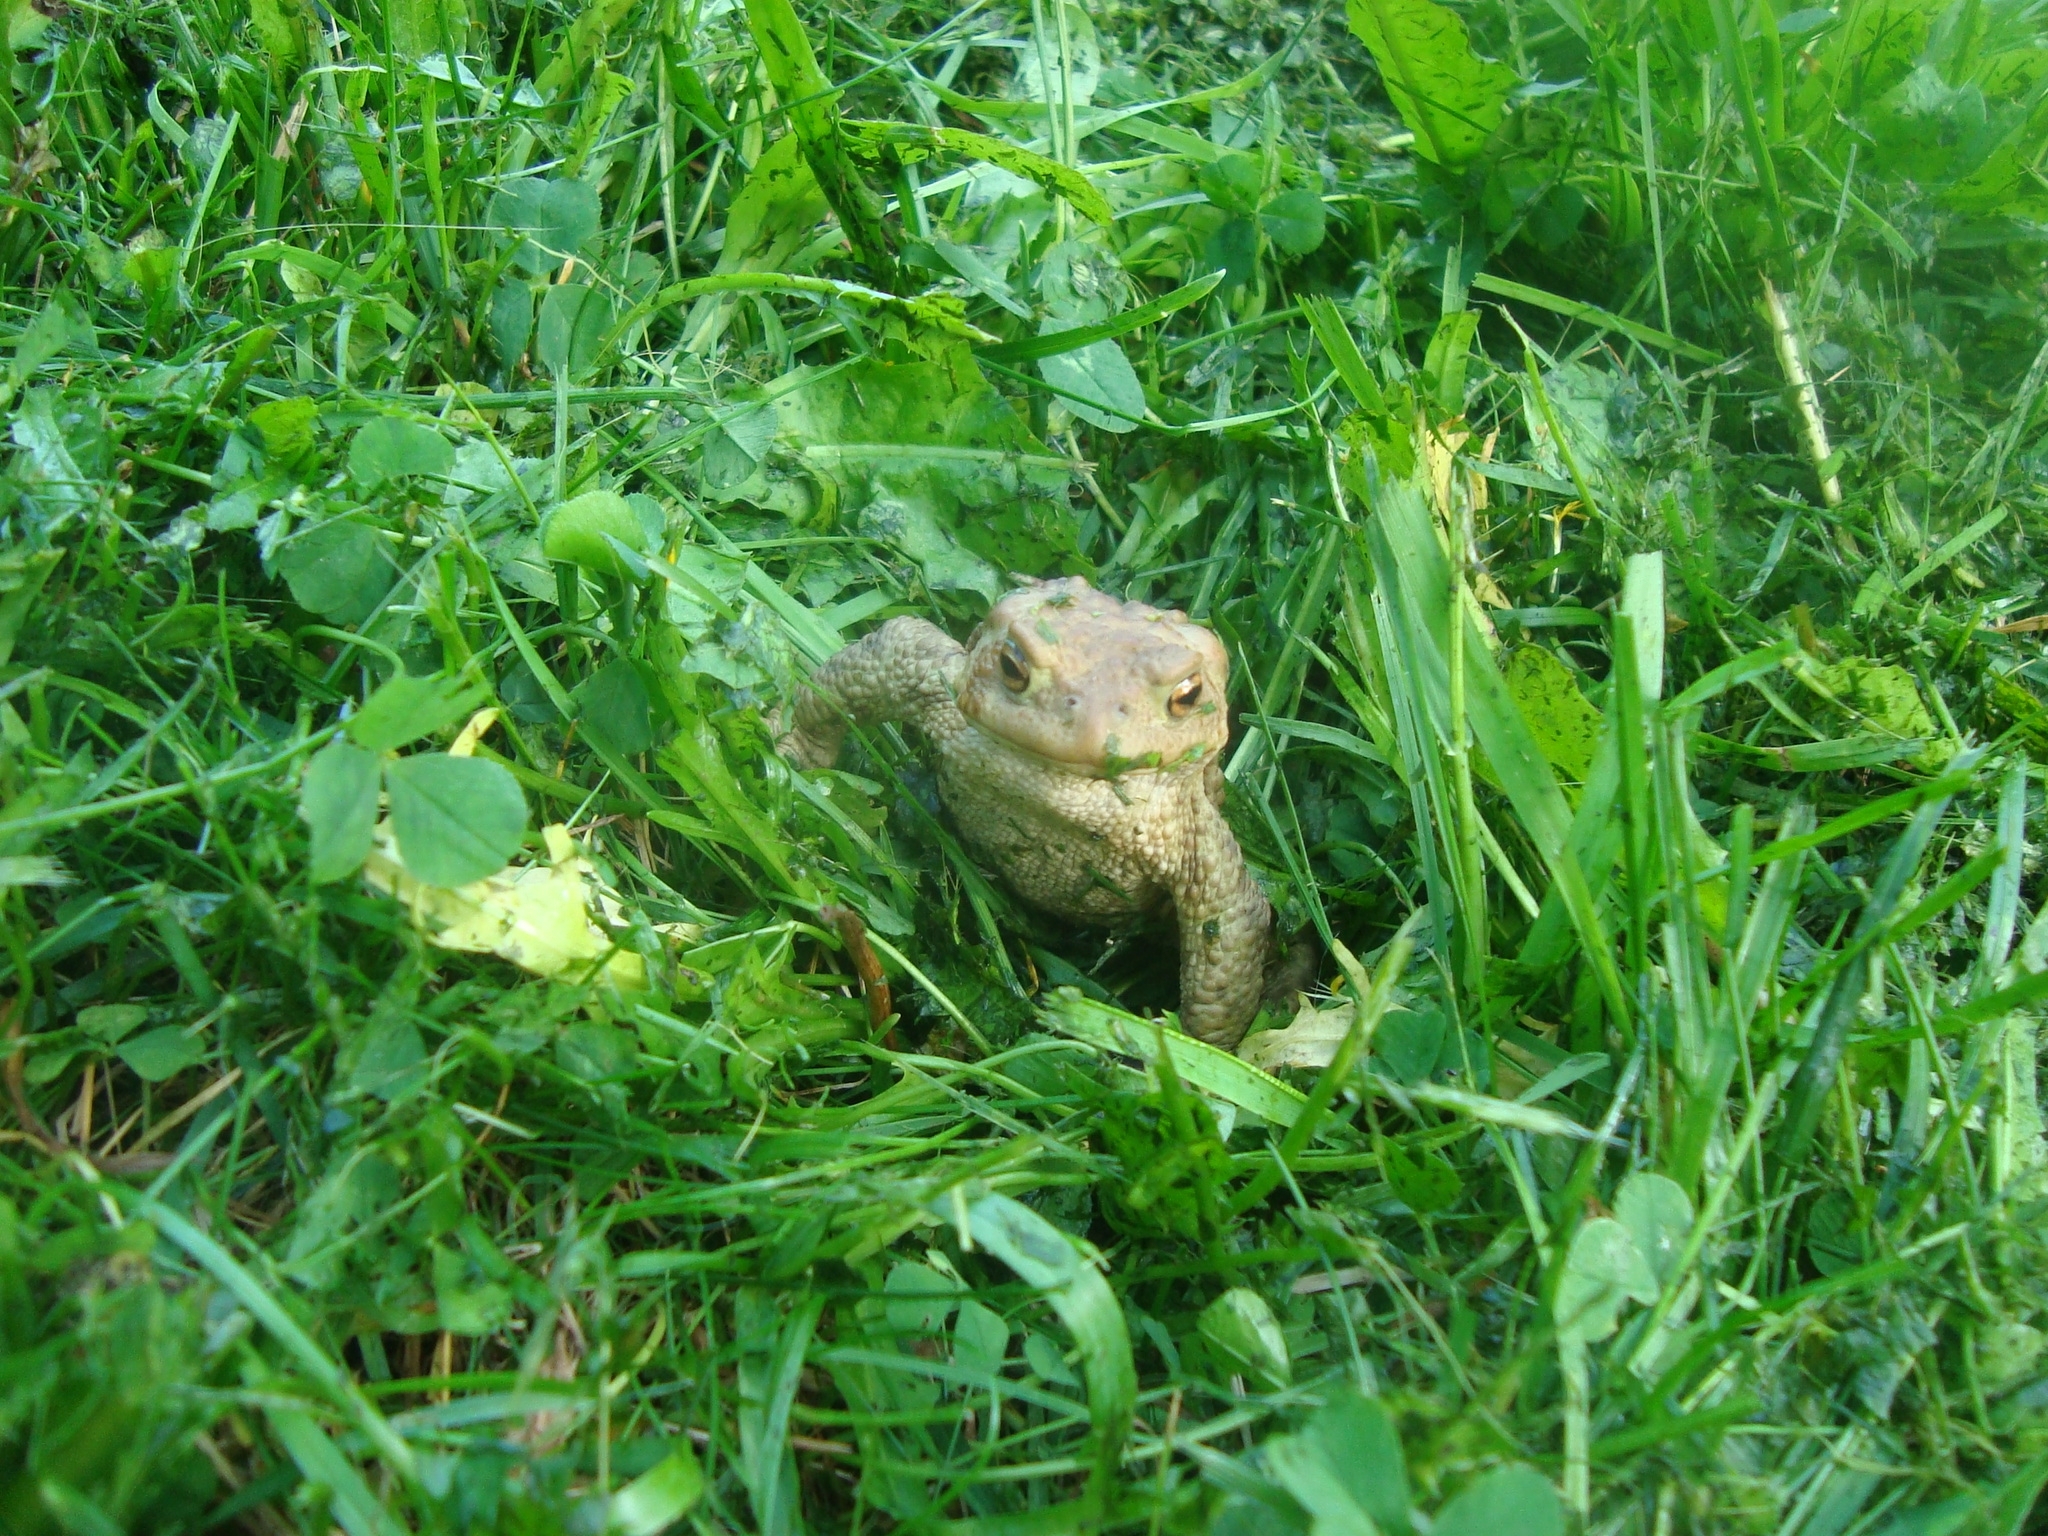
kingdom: Animalia
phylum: Chordata
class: Amphibia
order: Anura
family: Bufonidae
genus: Bufo
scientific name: Bufo bufo
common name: Common toad
